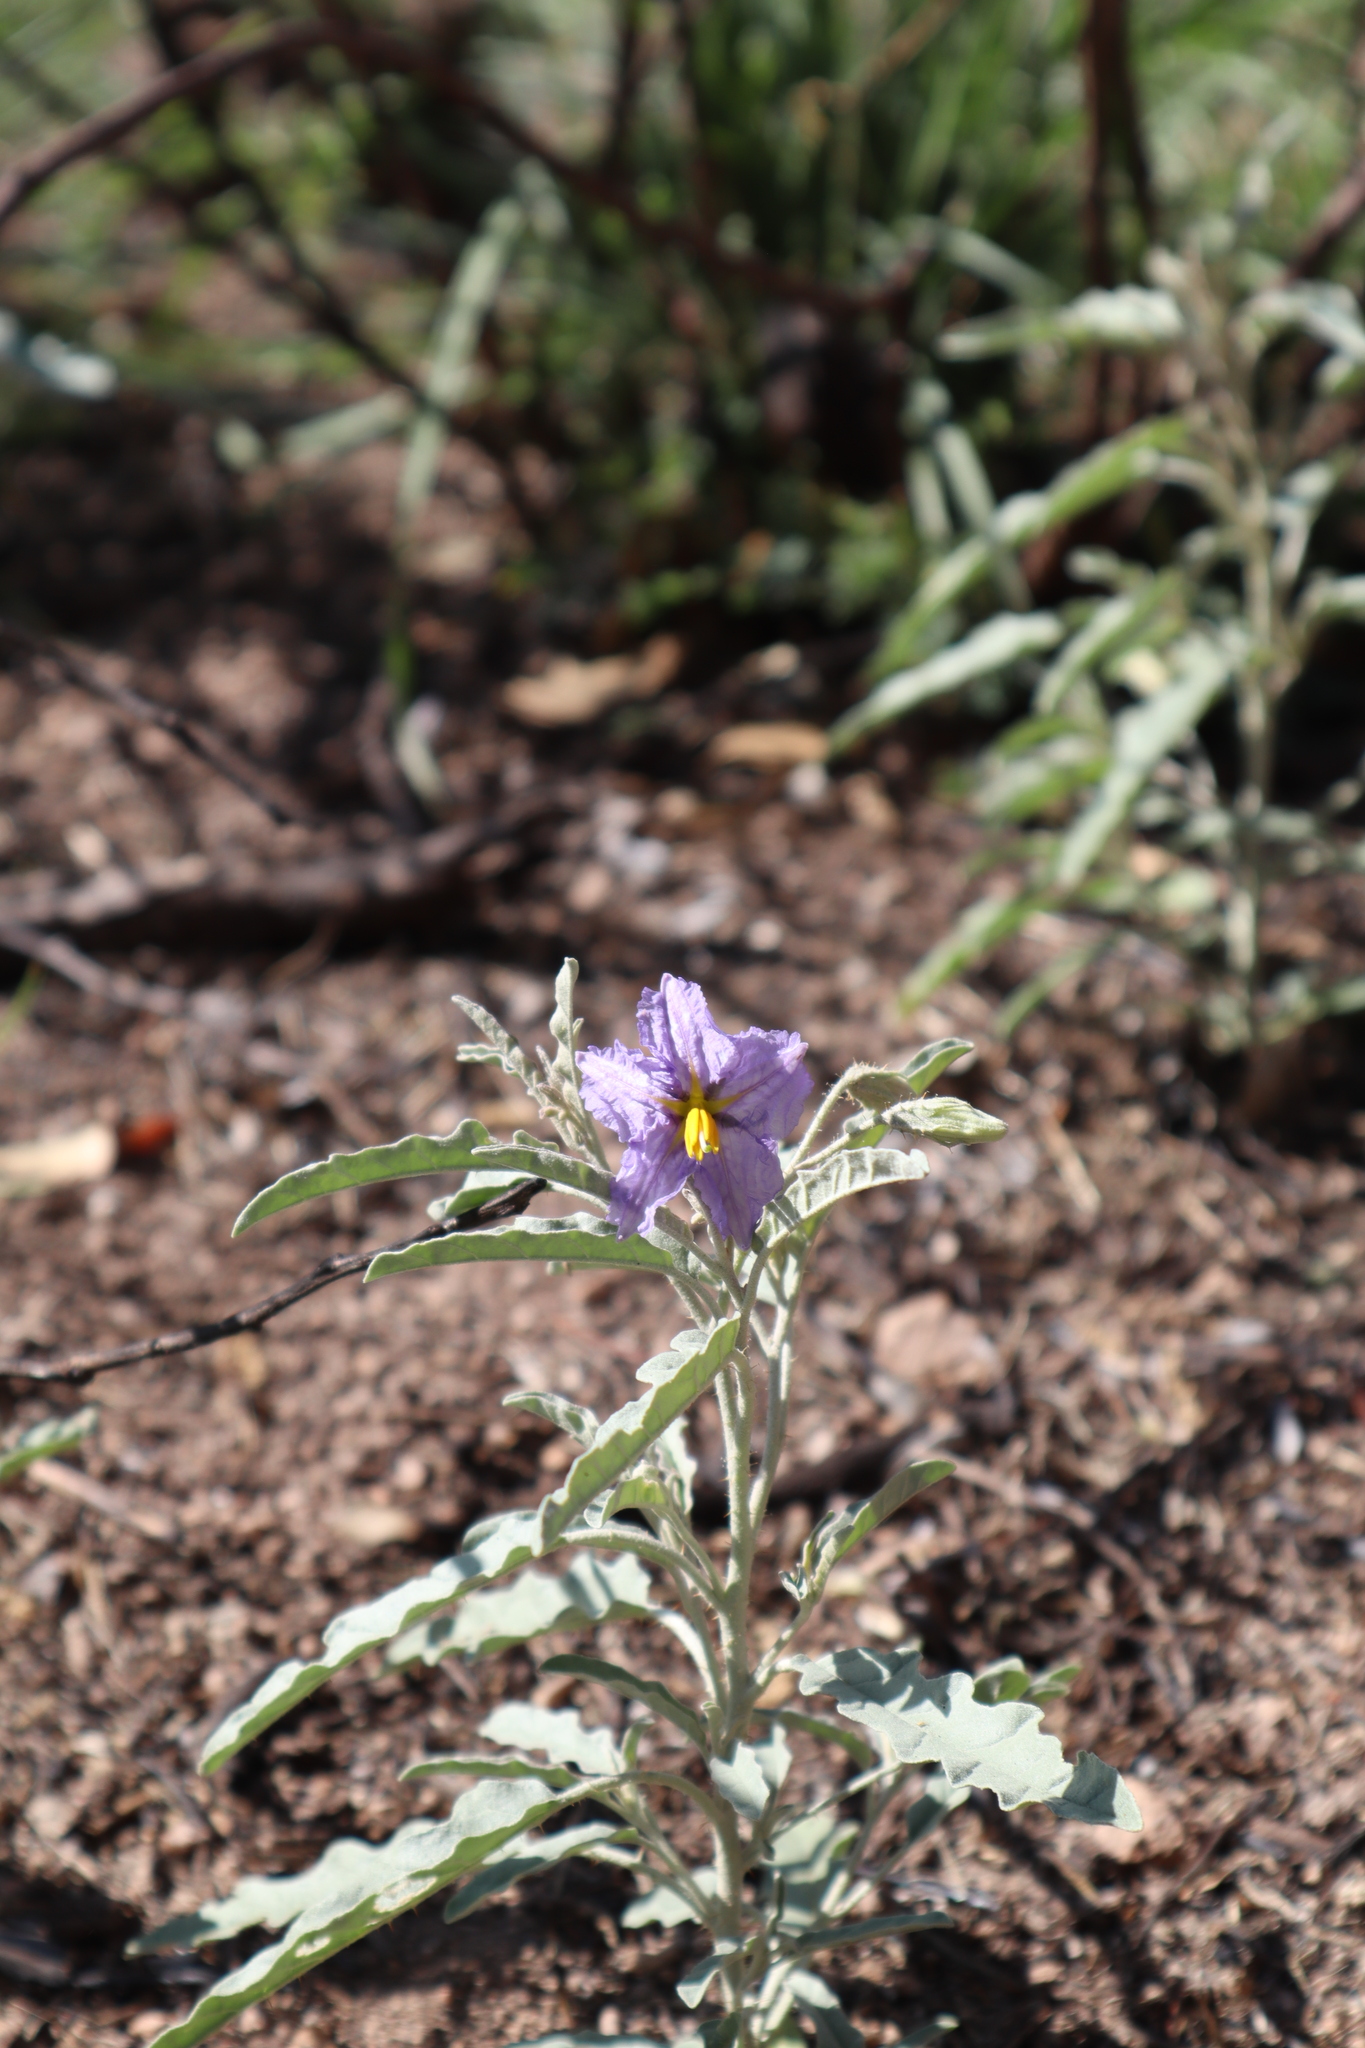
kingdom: Plantae
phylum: Tracheophyta
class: Magnoliopsida
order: Solanales
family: Solanaceae
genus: Solanum
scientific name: Solanum elaeagnifolium
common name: Silverleaf nightshade
